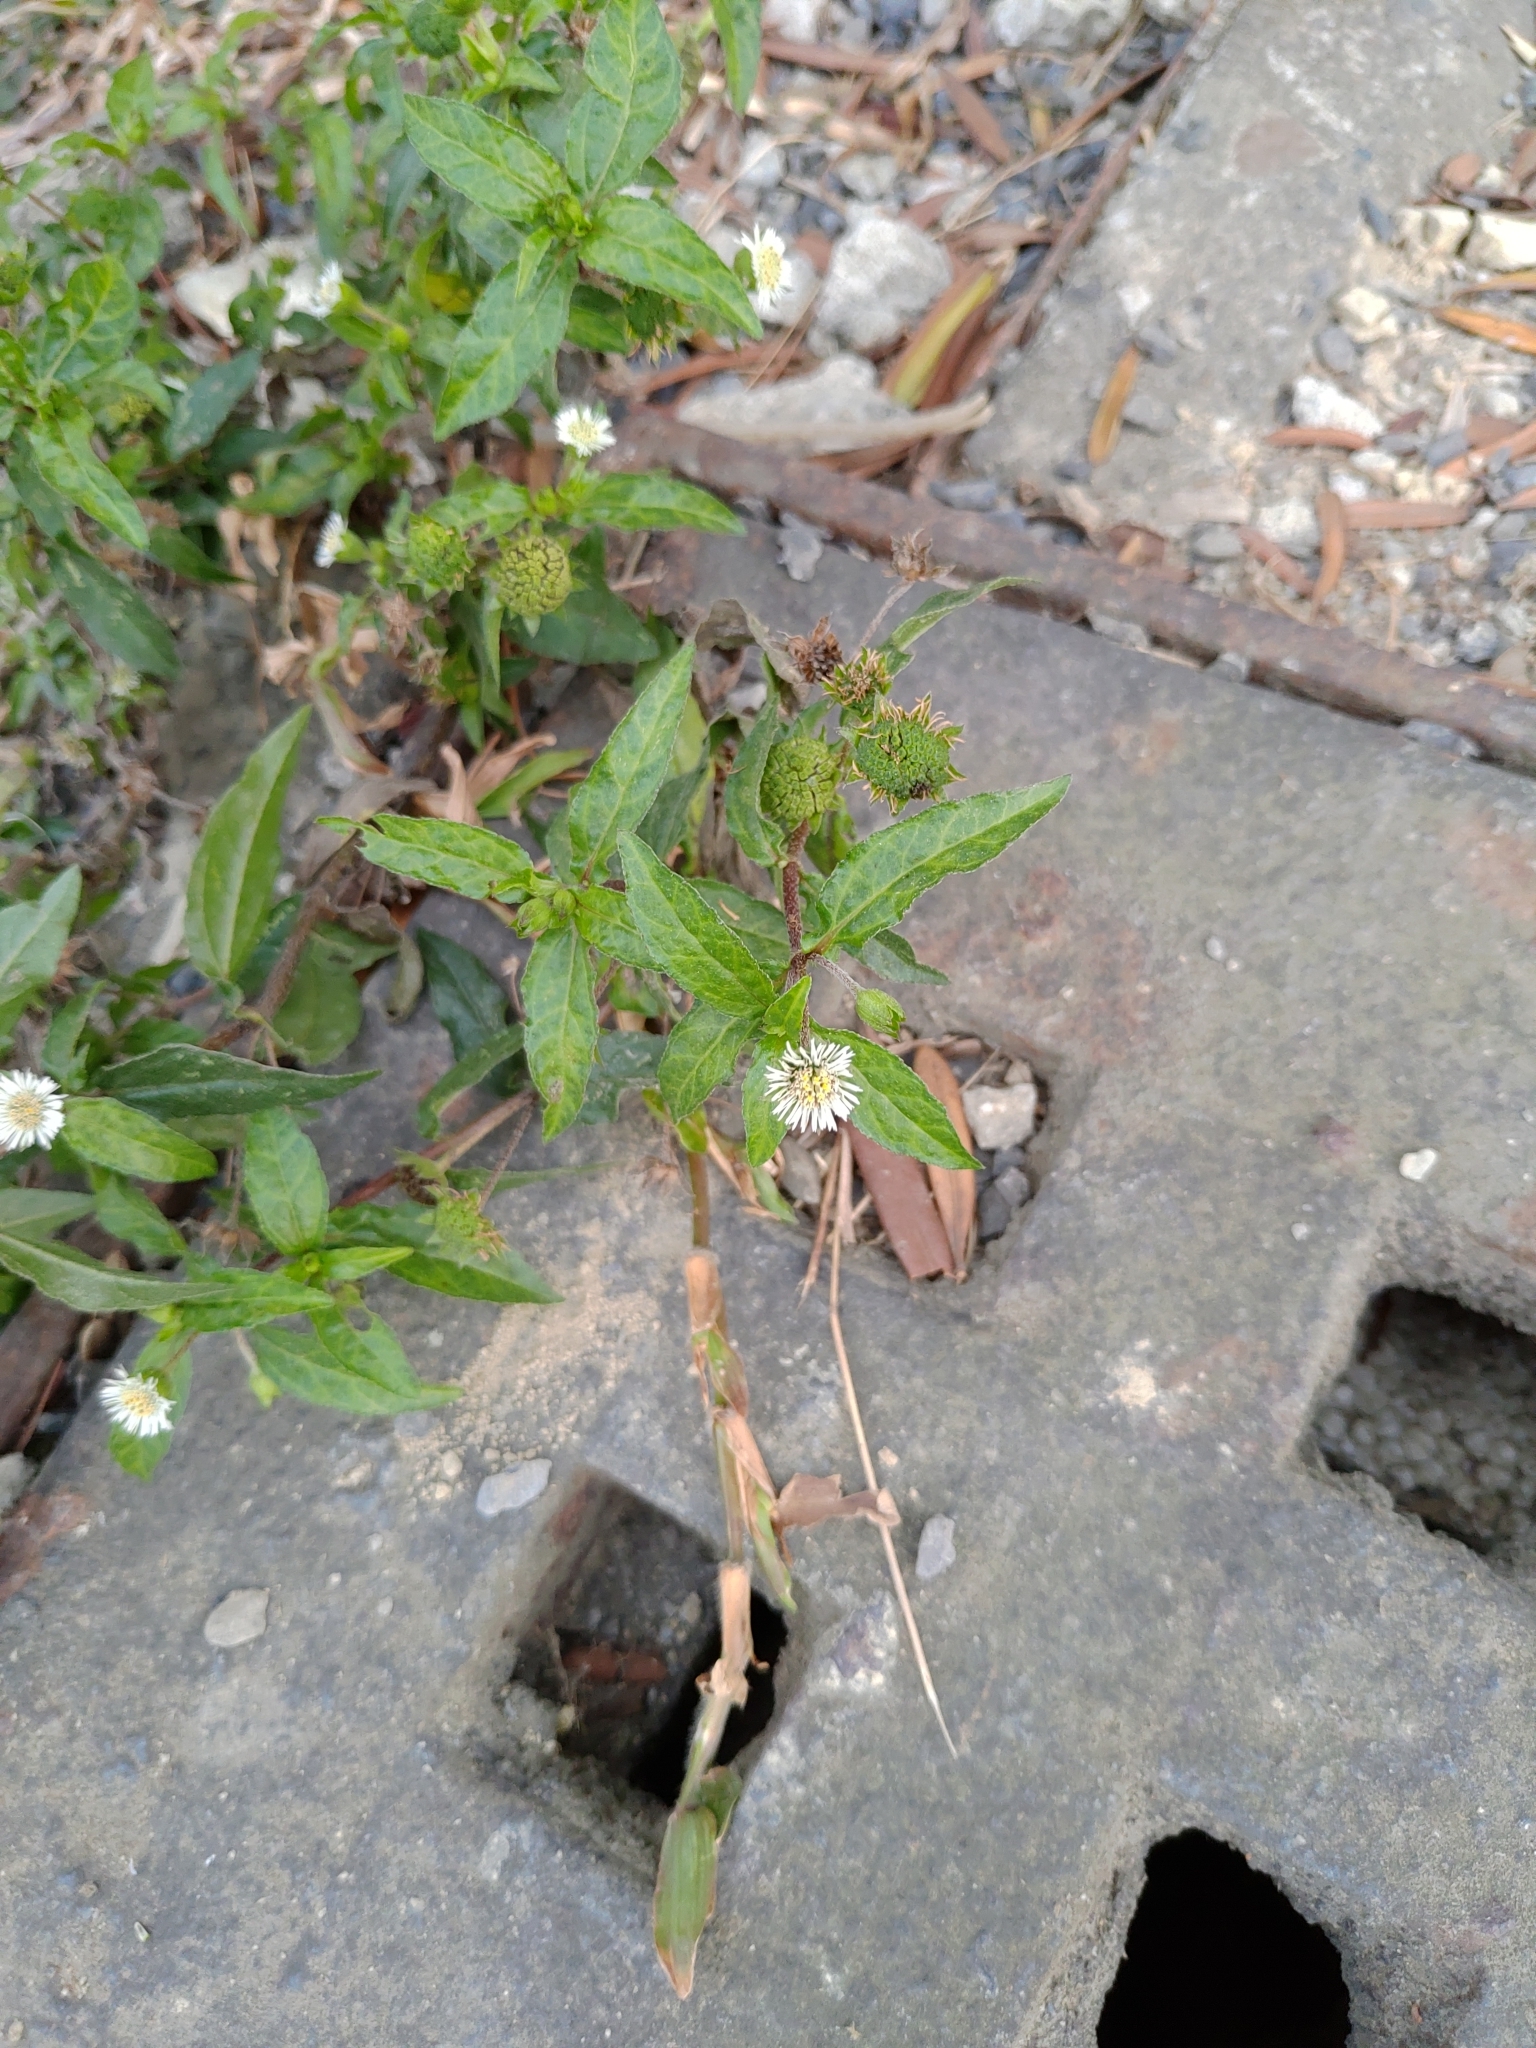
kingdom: Plantae
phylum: Tracheophyta
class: Magnoliopsida
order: Asterales
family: Asteraceae
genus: Eclipta
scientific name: Eclipta prostrata
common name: False daisy
